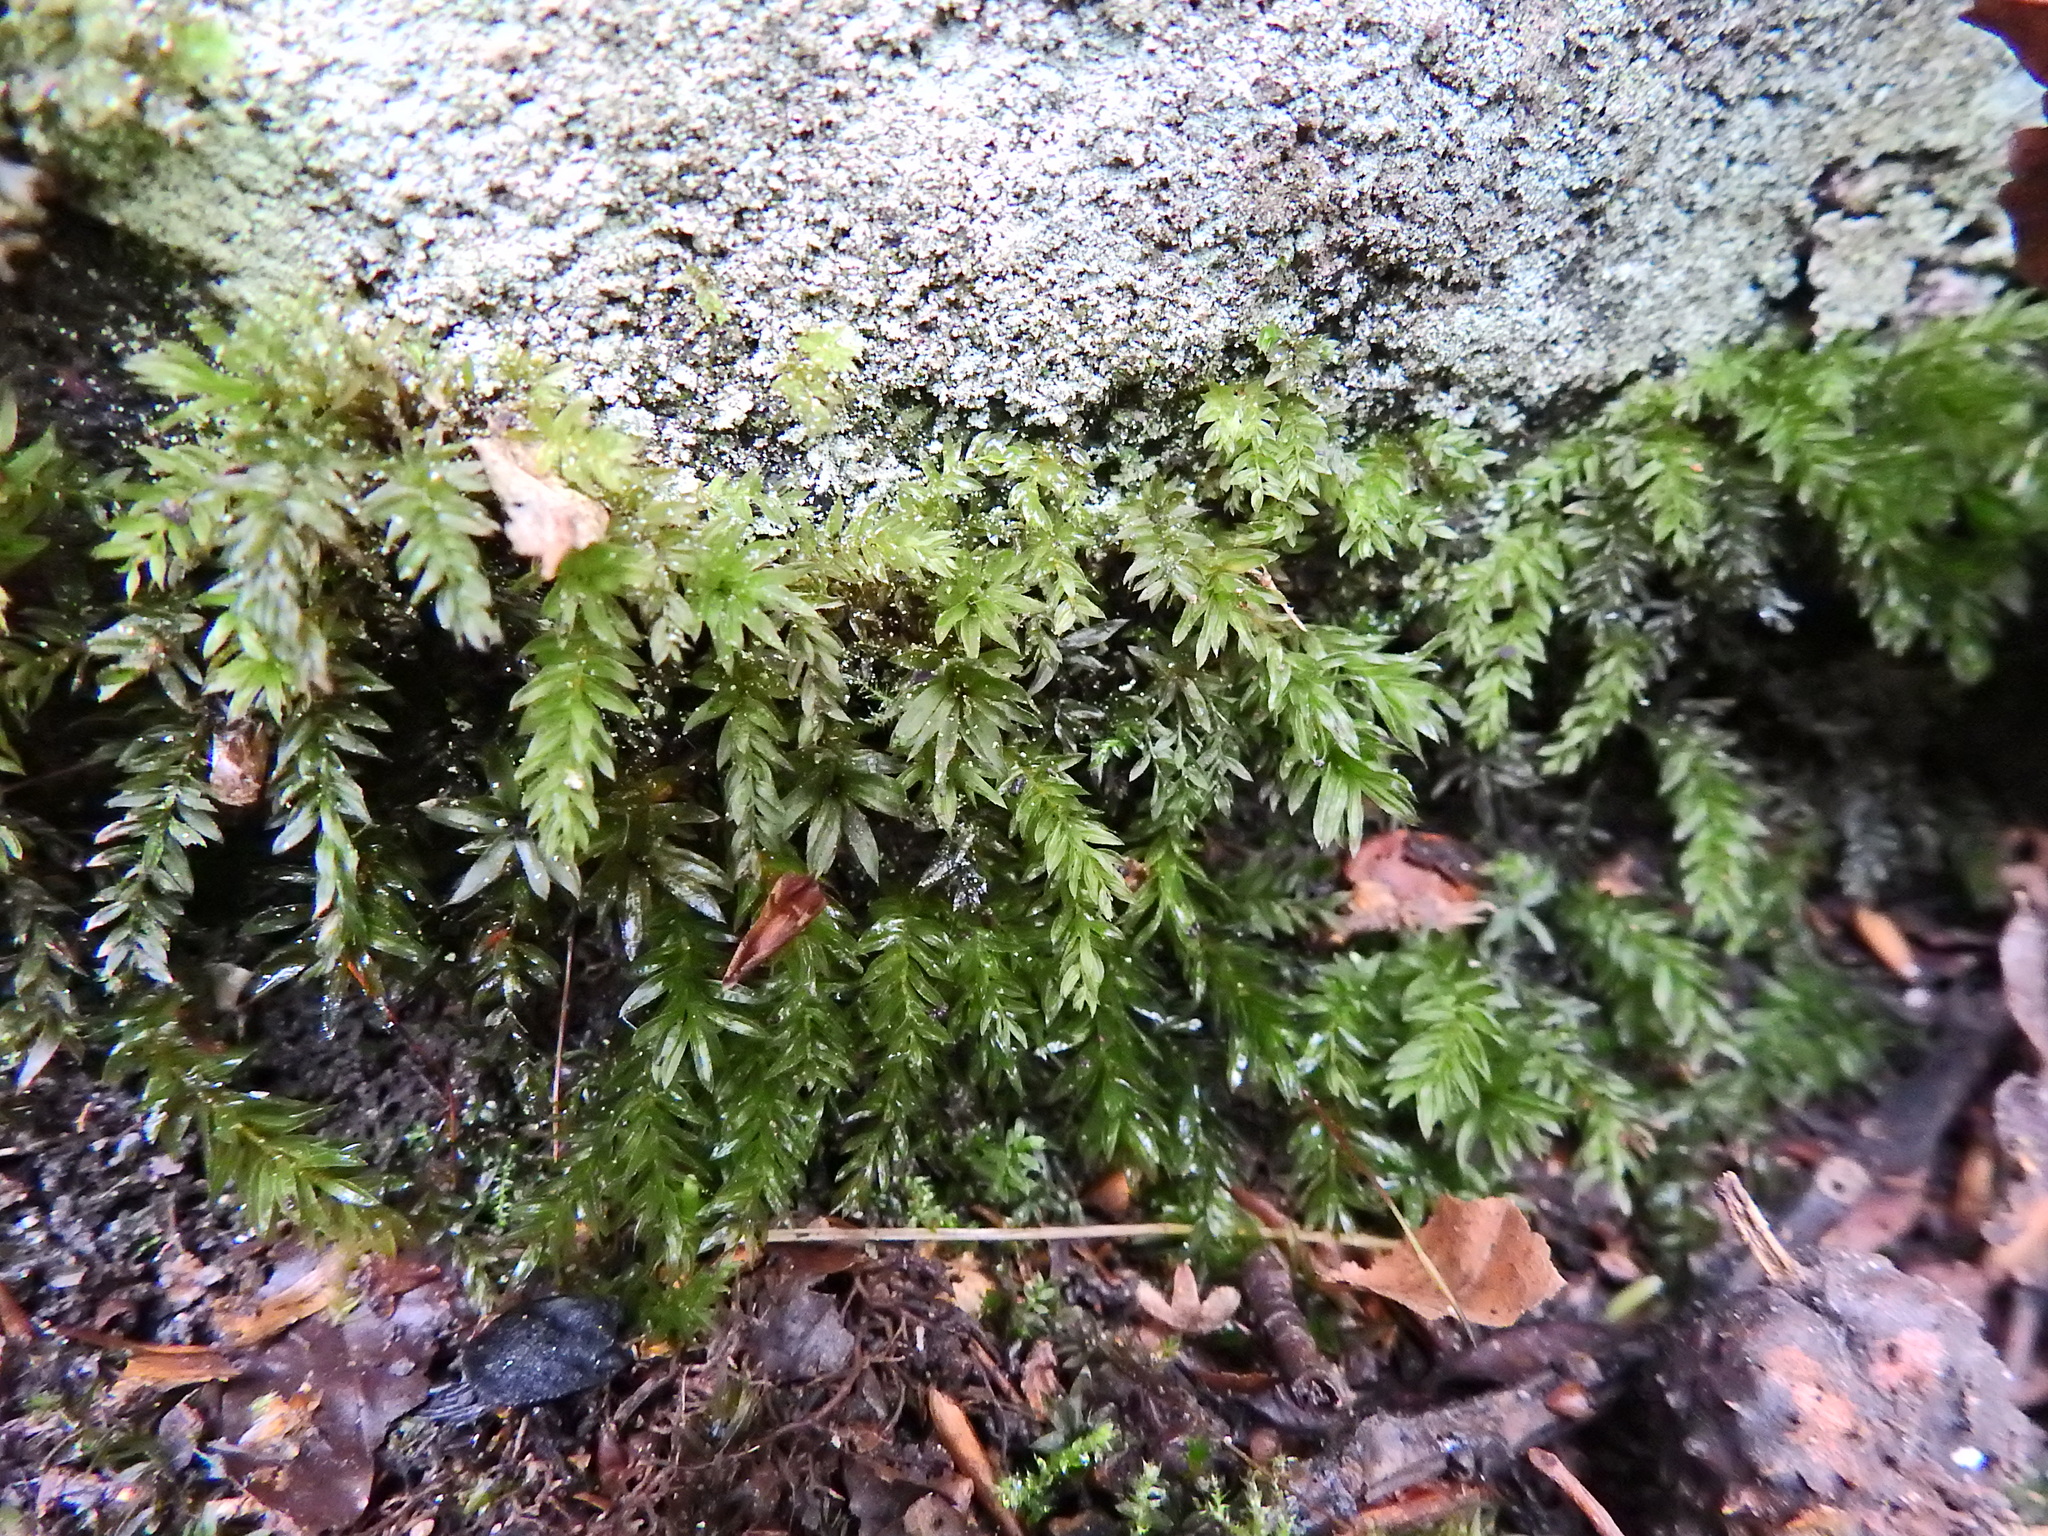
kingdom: Plantae
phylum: Bryophyta
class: Bryopsida
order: Bryales
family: Mniaceae
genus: Mnium
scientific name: Mnium hornum
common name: Swan's-neck leafy moss
